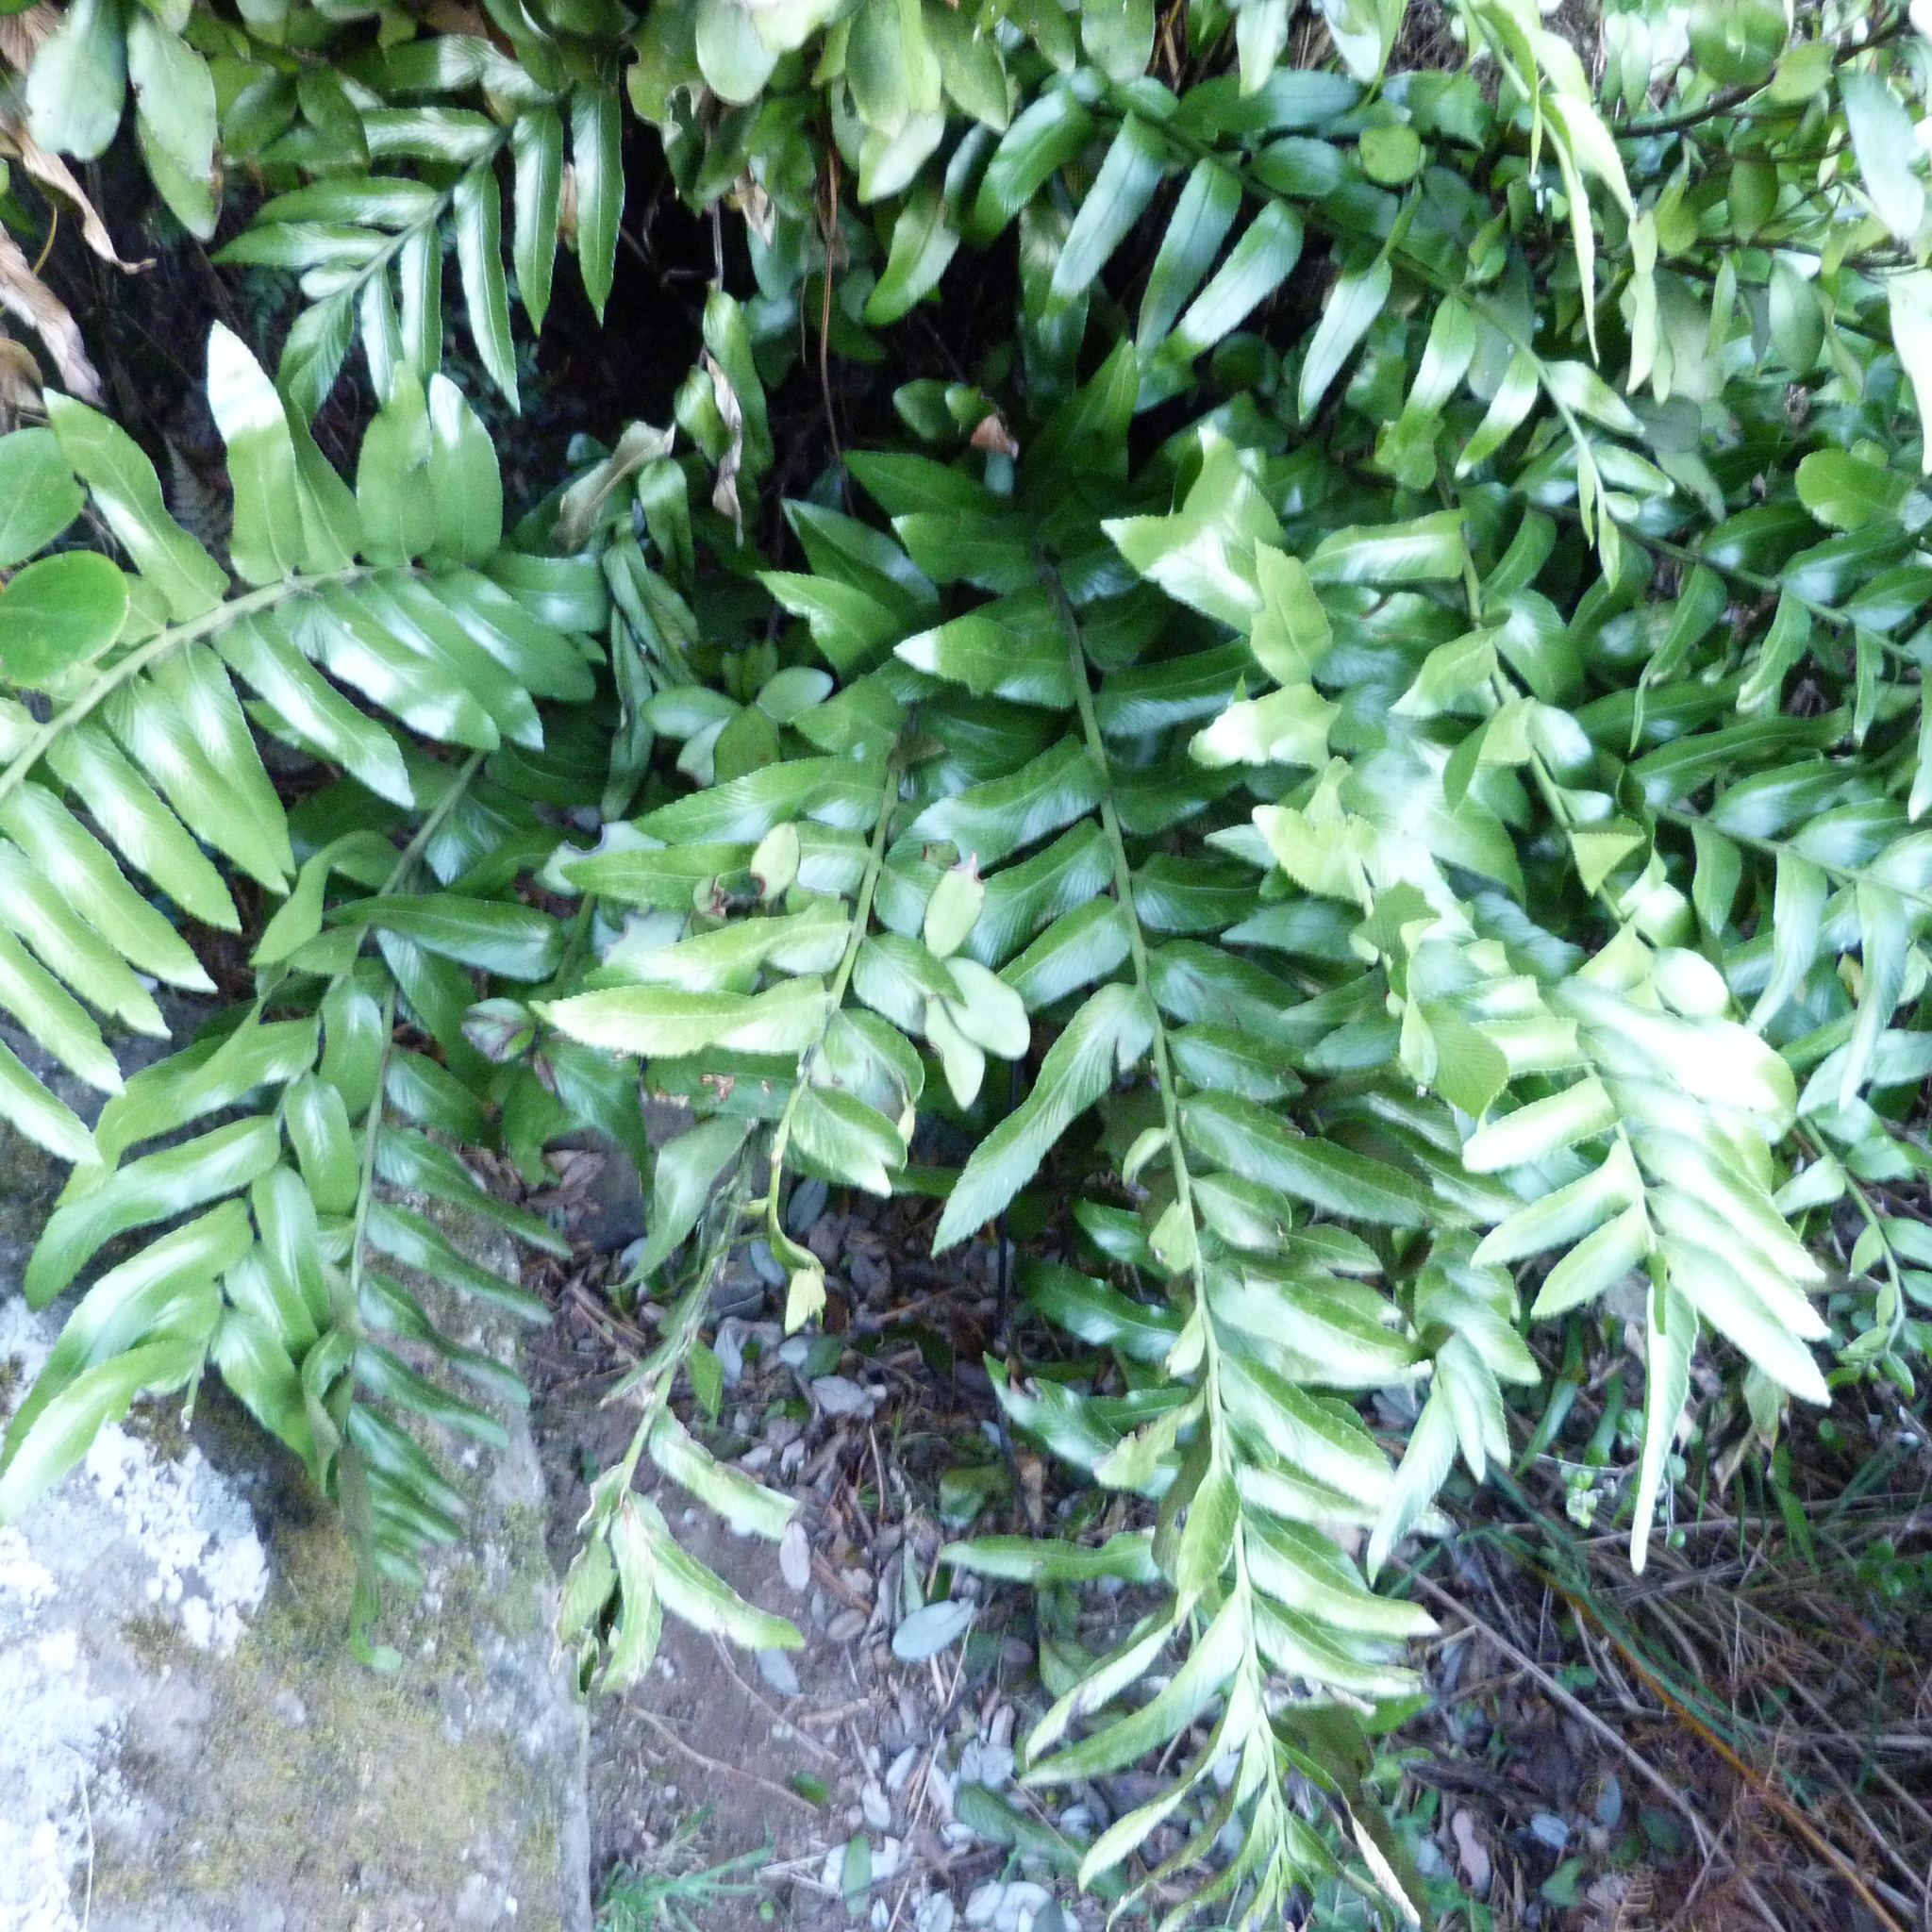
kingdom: Plantae
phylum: Tracheophyta
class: Polypodiopsida
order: Polypodiales
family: Aspleniaceae
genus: Asplenium
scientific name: Asplenium oblongifolium
